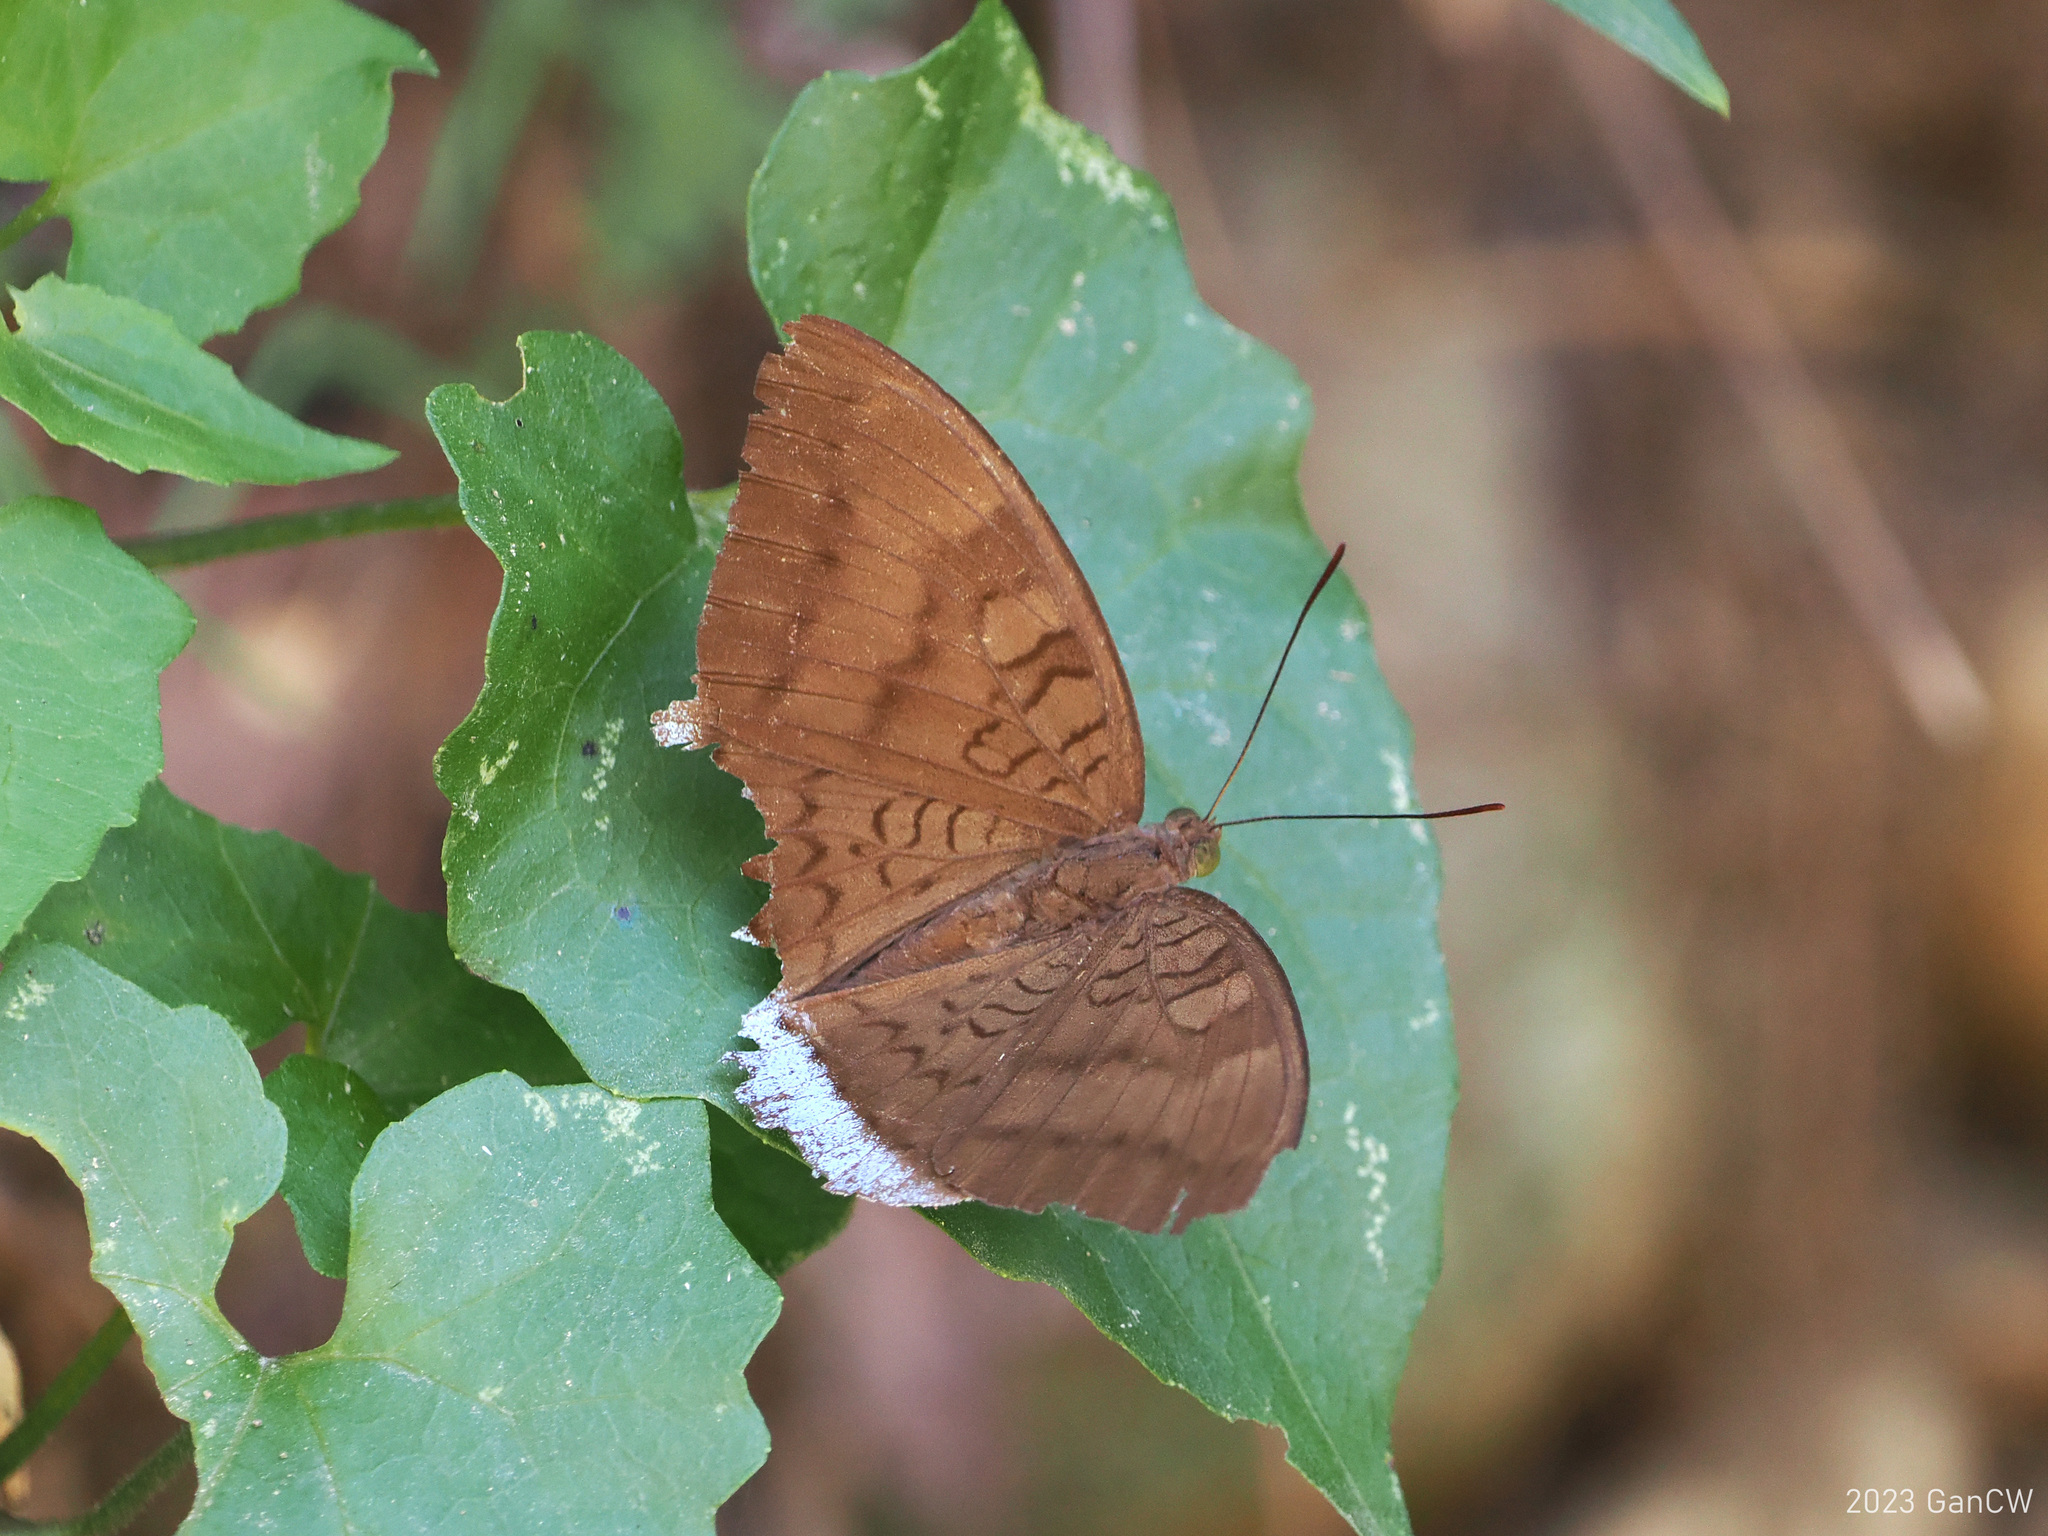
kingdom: Animalia
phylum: Arthropoda
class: Insecta
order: Lepidoptera
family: Nymphalidae
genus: Tanaecia
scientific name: Tanaecia julii
